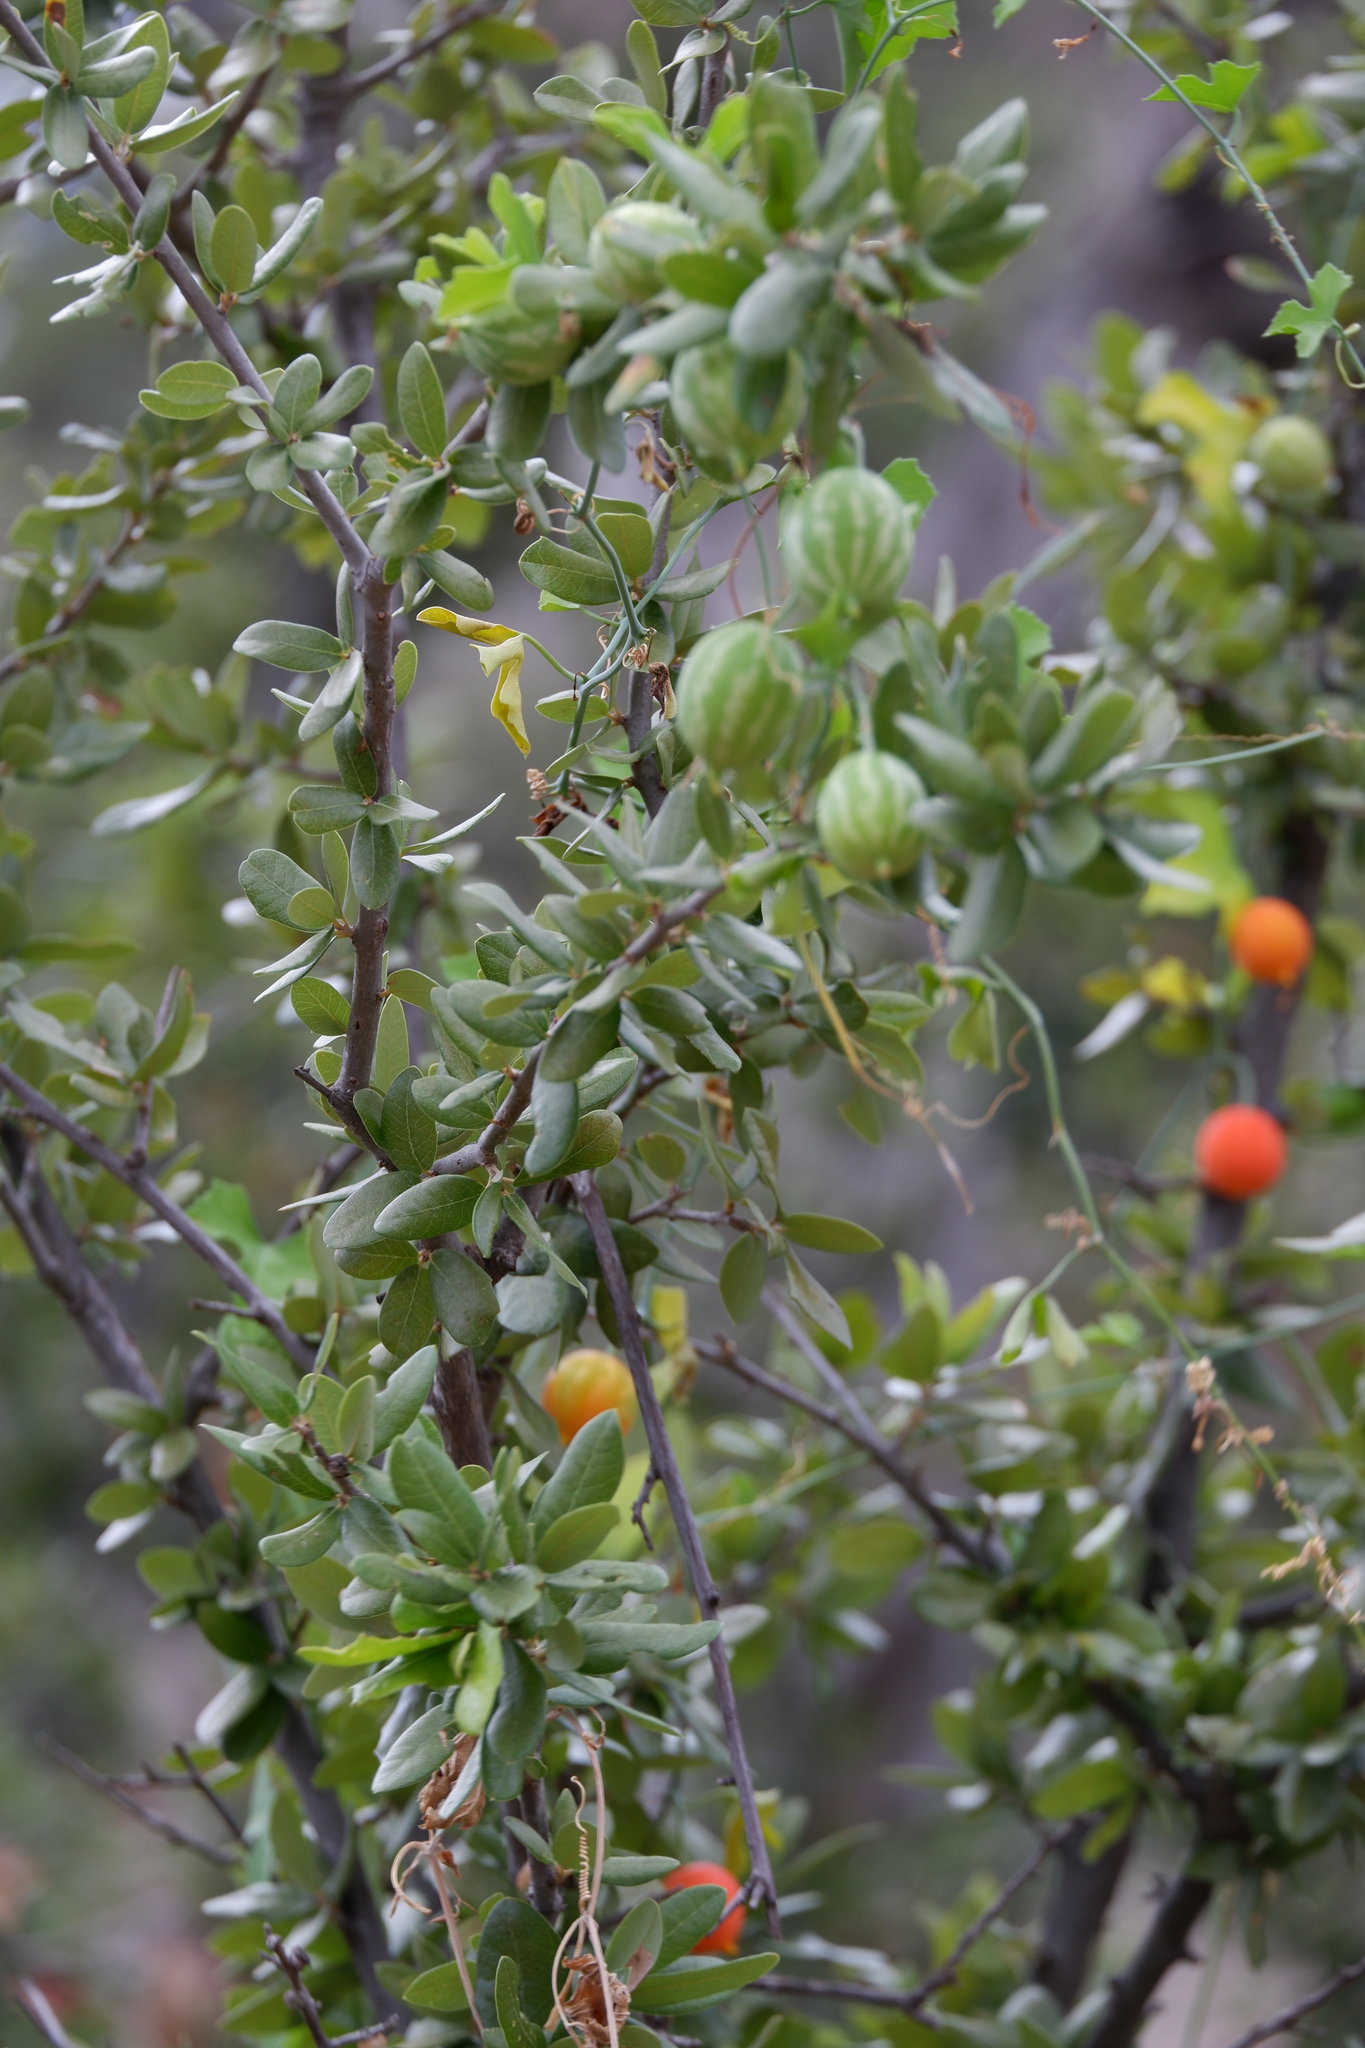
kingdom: Plantae
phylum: Tracheophyta
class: Magnoliopsida
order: Cucurbitales
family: Cucurbitaceae
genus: Ibervillea
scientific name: Ibervillea lindheimeri
